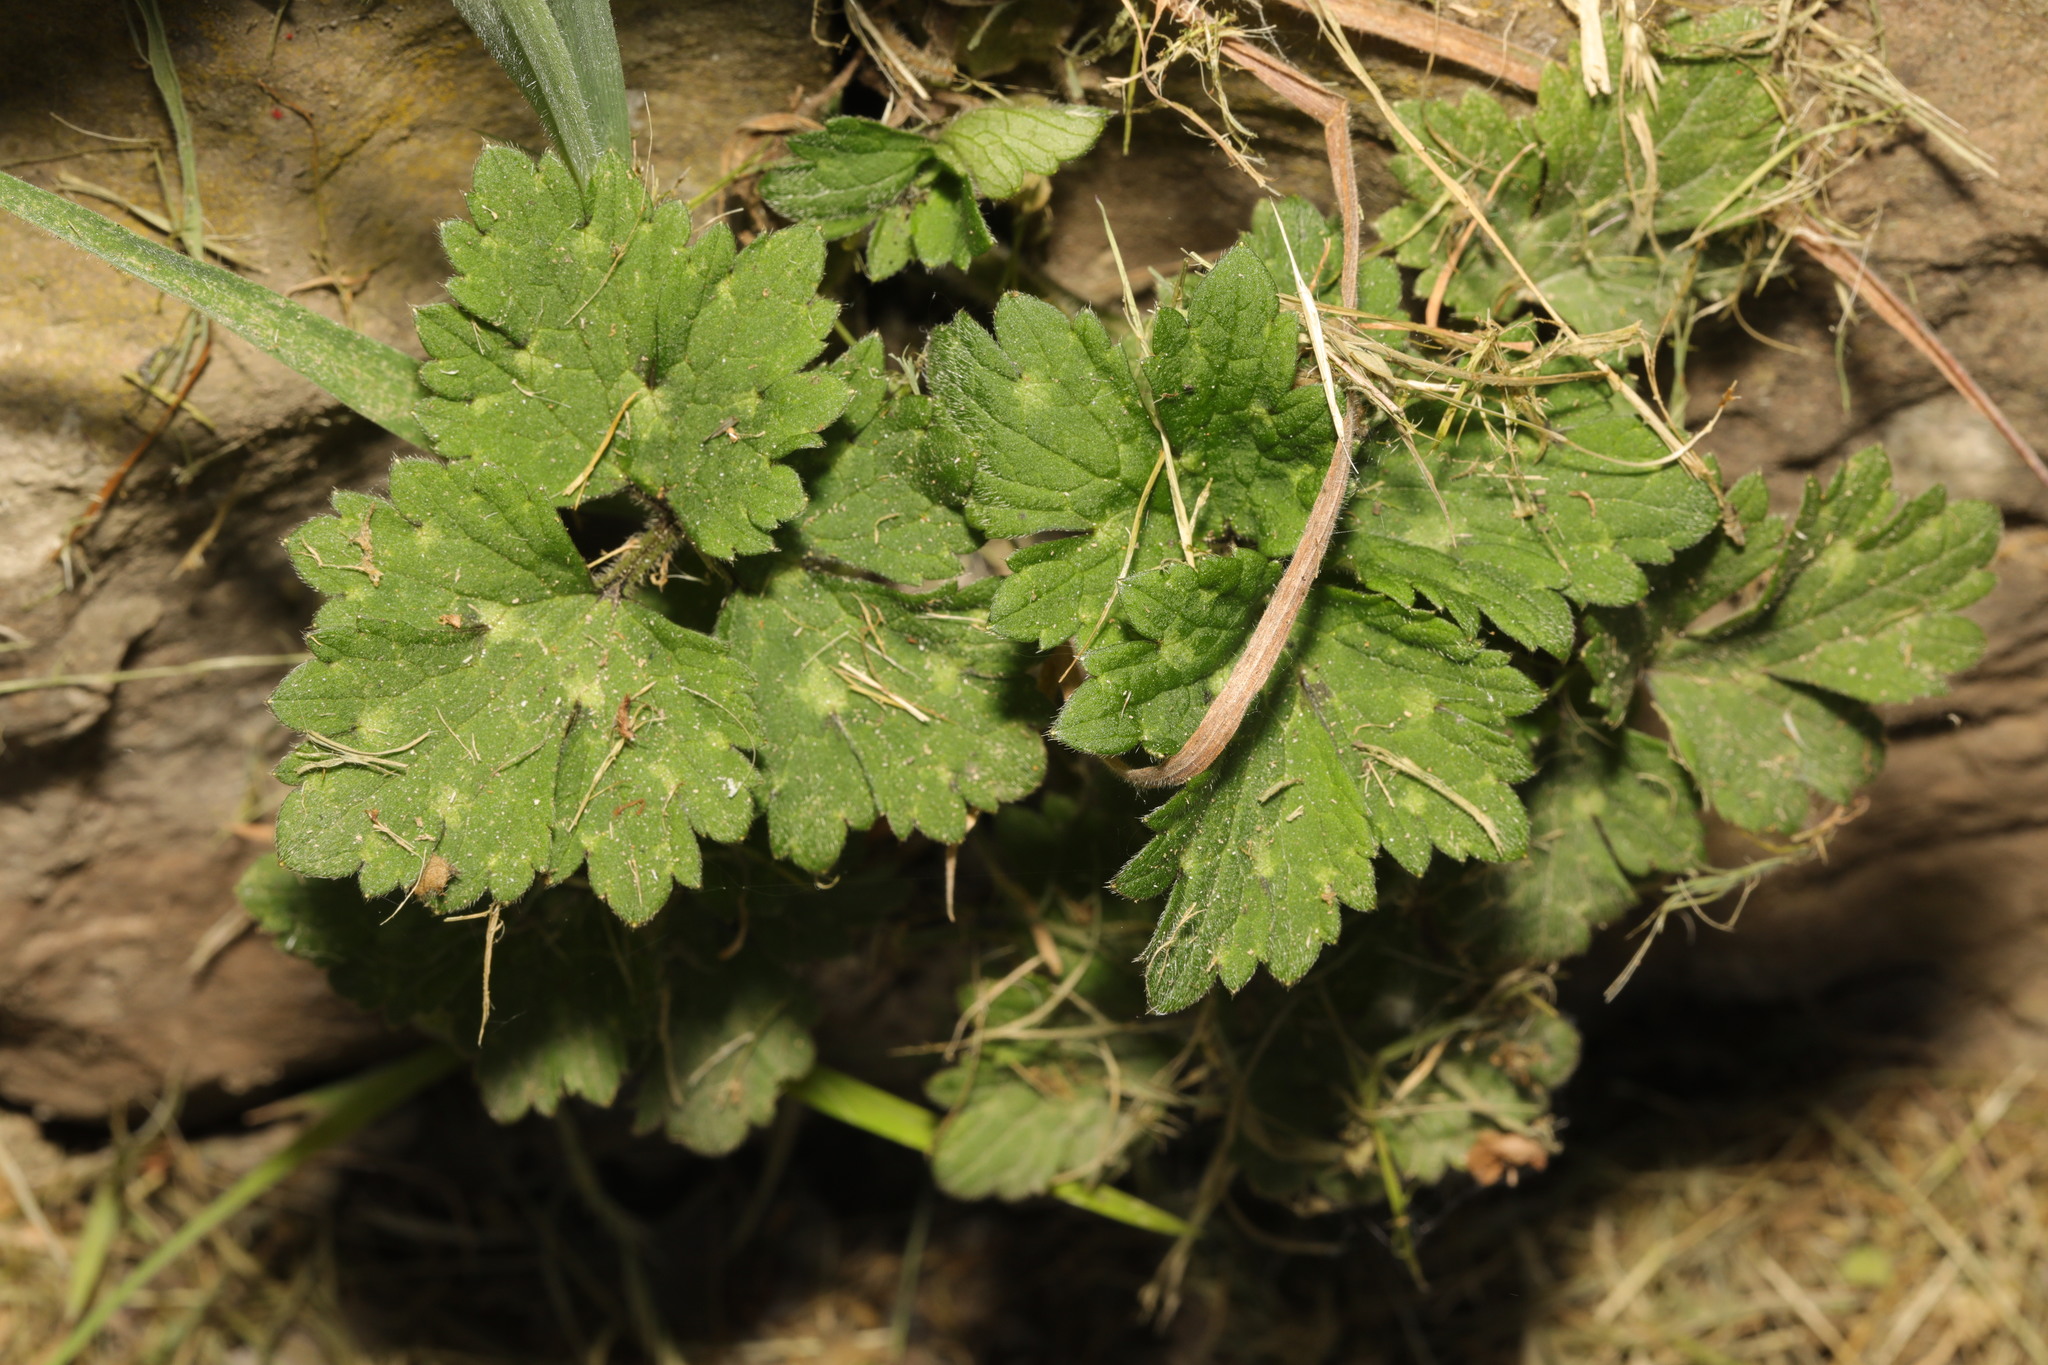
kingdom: Plantae
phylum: Tracheophyta
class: Magnoliopsida
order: Ranunculales
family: Ranunculaceae
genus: Ranunculus
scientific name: Ranunculus repens
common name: Creeping buttercup
